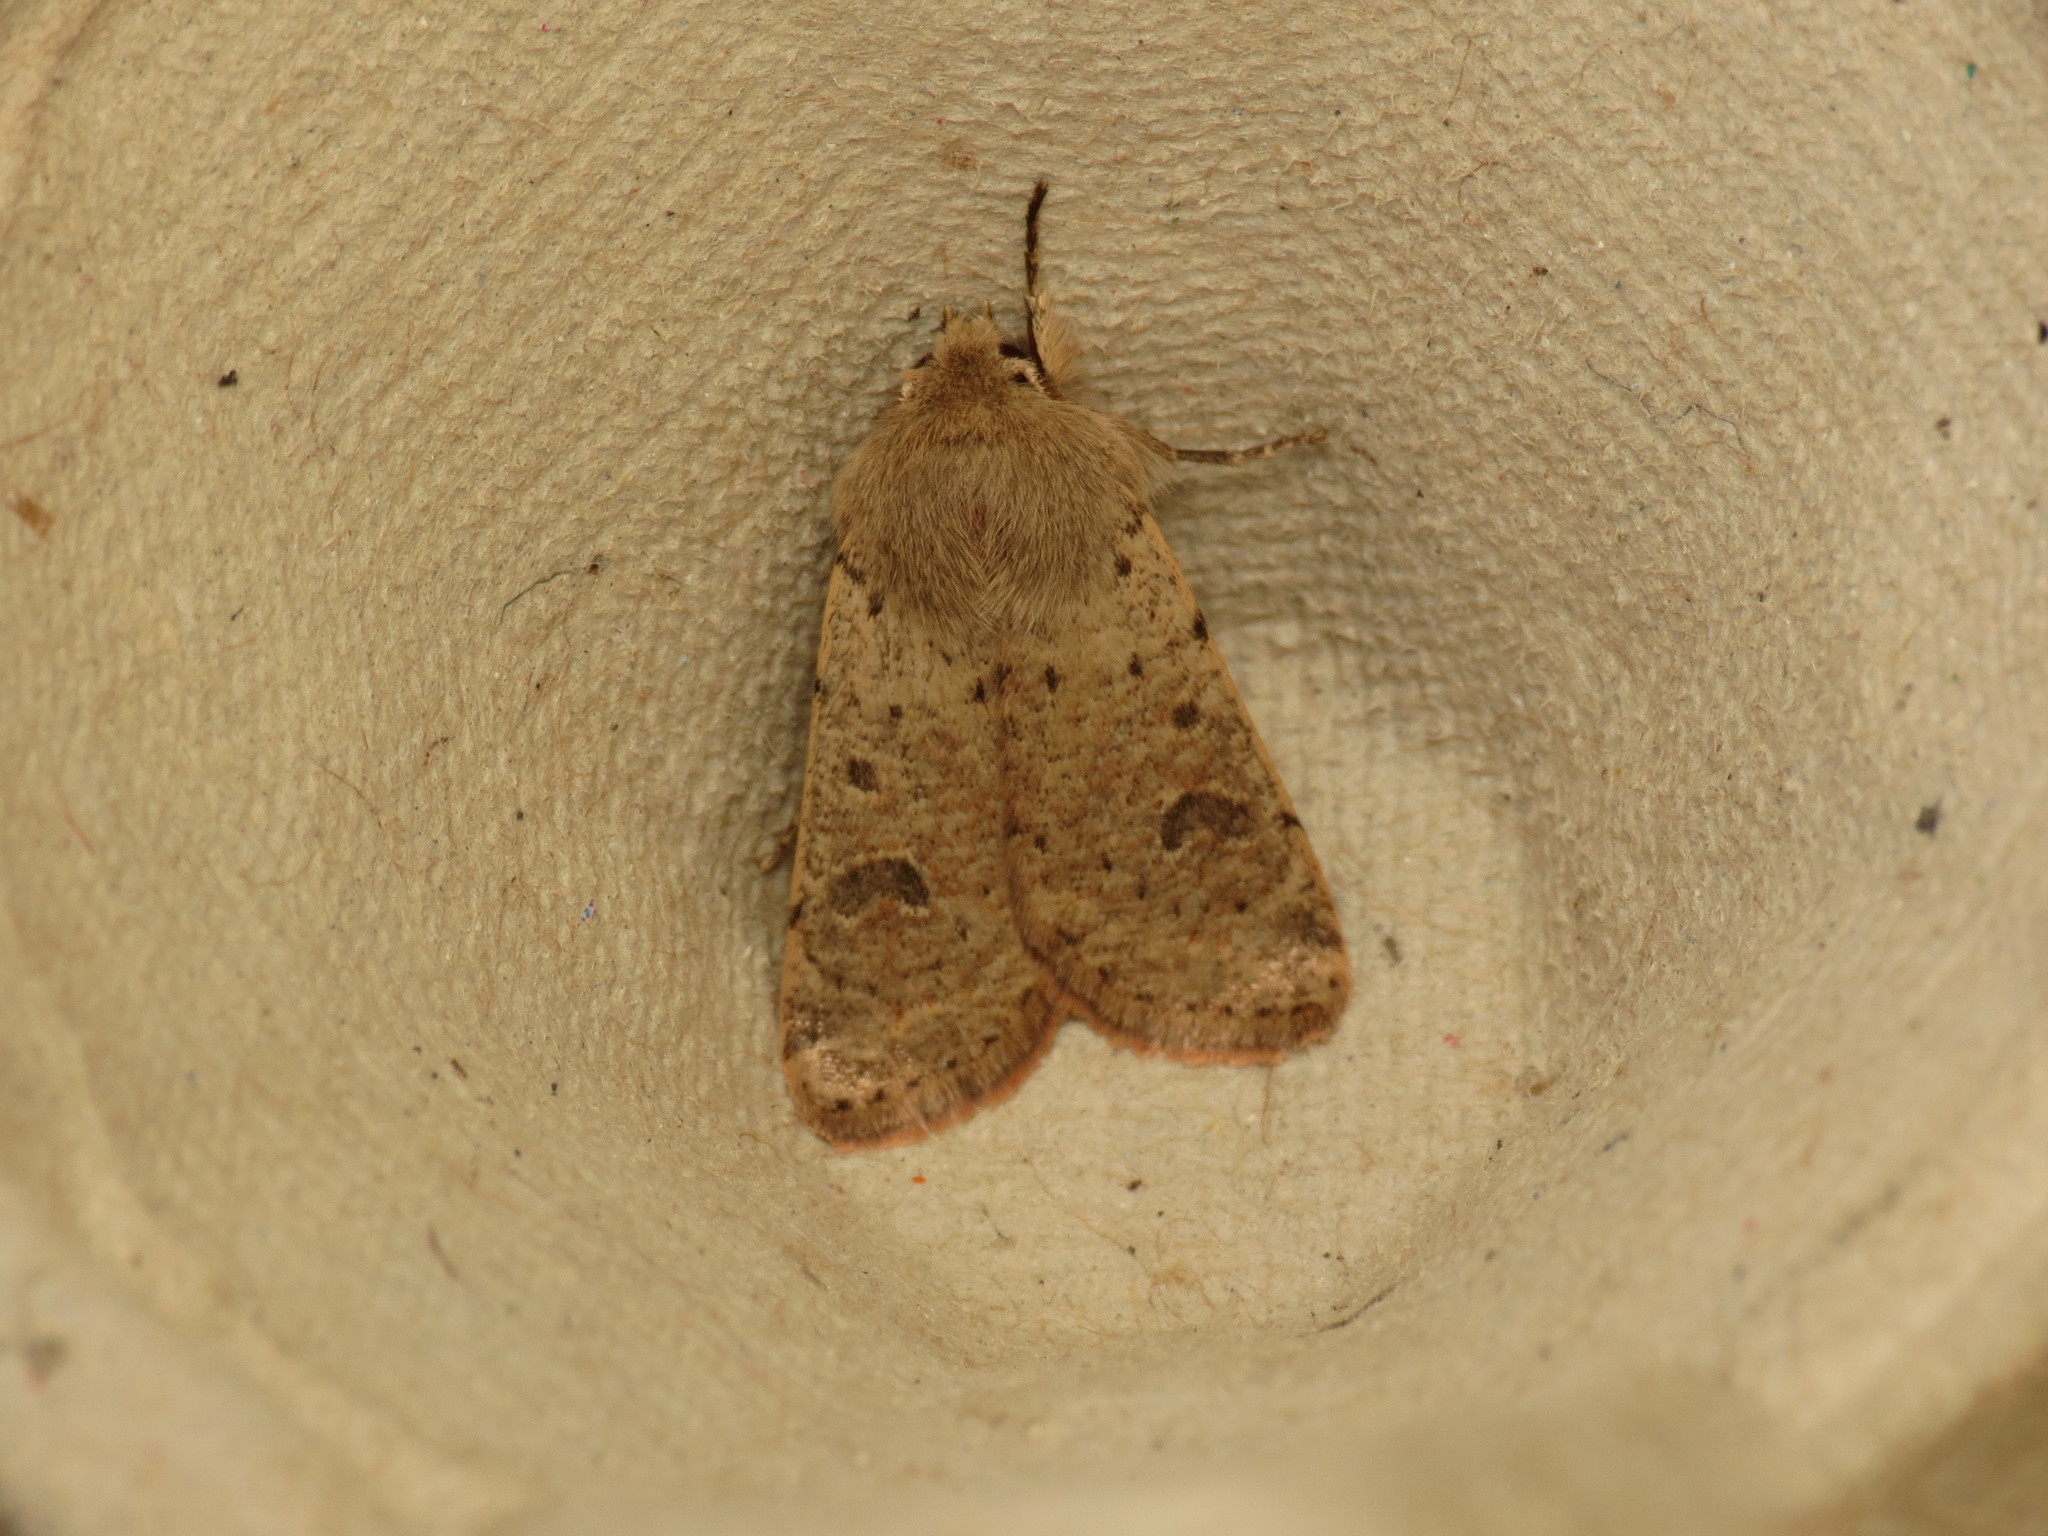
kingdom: Animalia
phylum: Arthropoda
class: Insecta
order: Lepidoptera
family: Noctuidae
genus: Orthosia
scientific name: Orthosia cruda
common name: Small quaker
